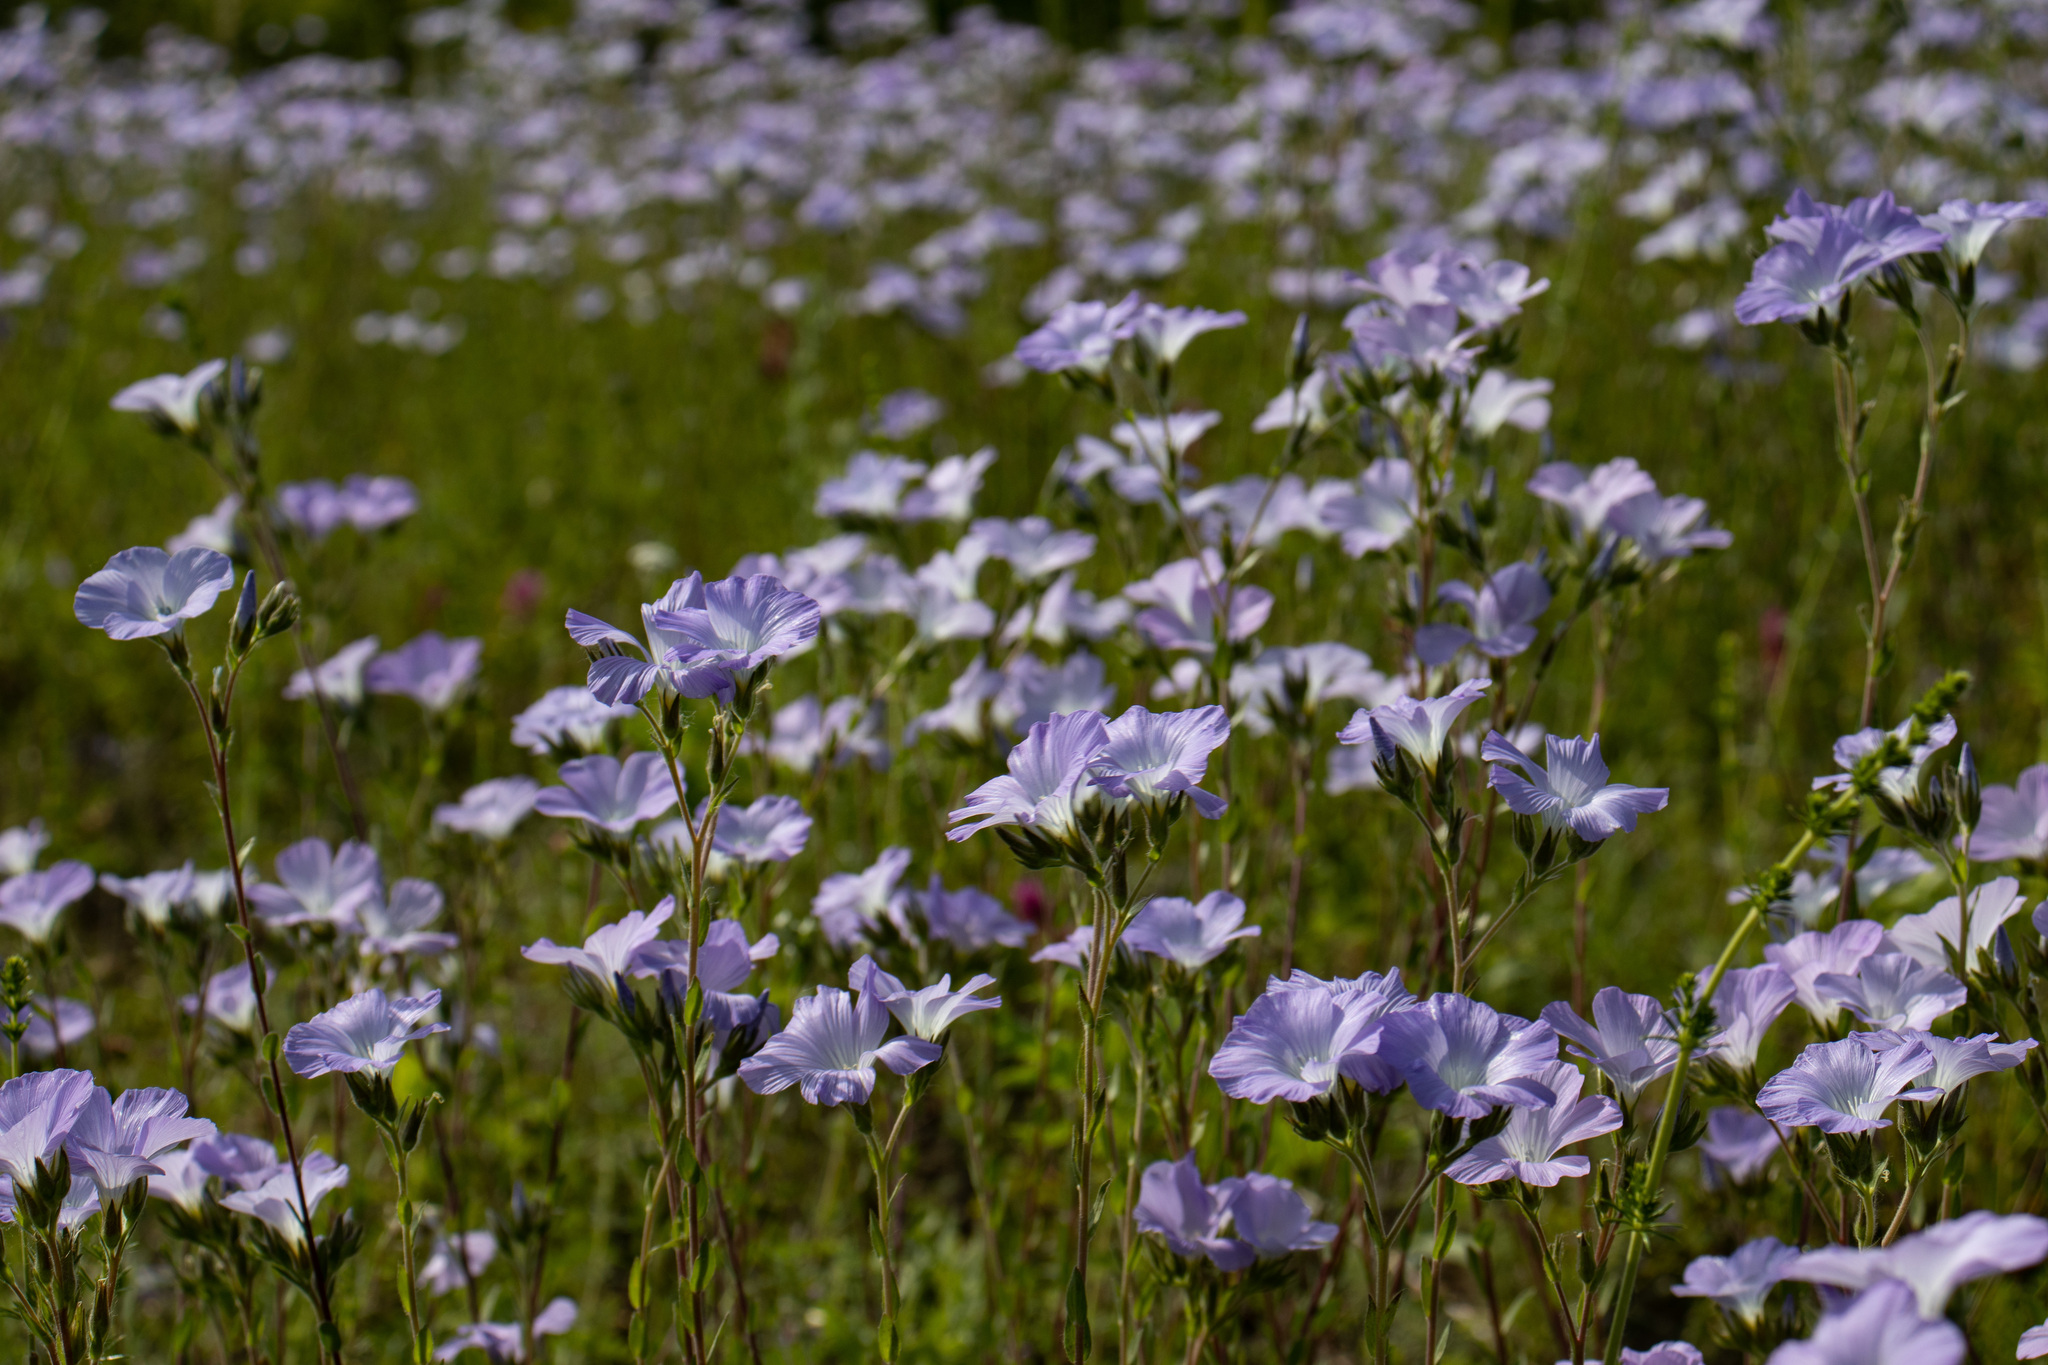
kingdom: Plantae
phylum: Tracheophyta
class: Magnoliopsida
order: Malpighiales
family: Linaceae
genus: Linum
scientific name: Linum hirsutum
